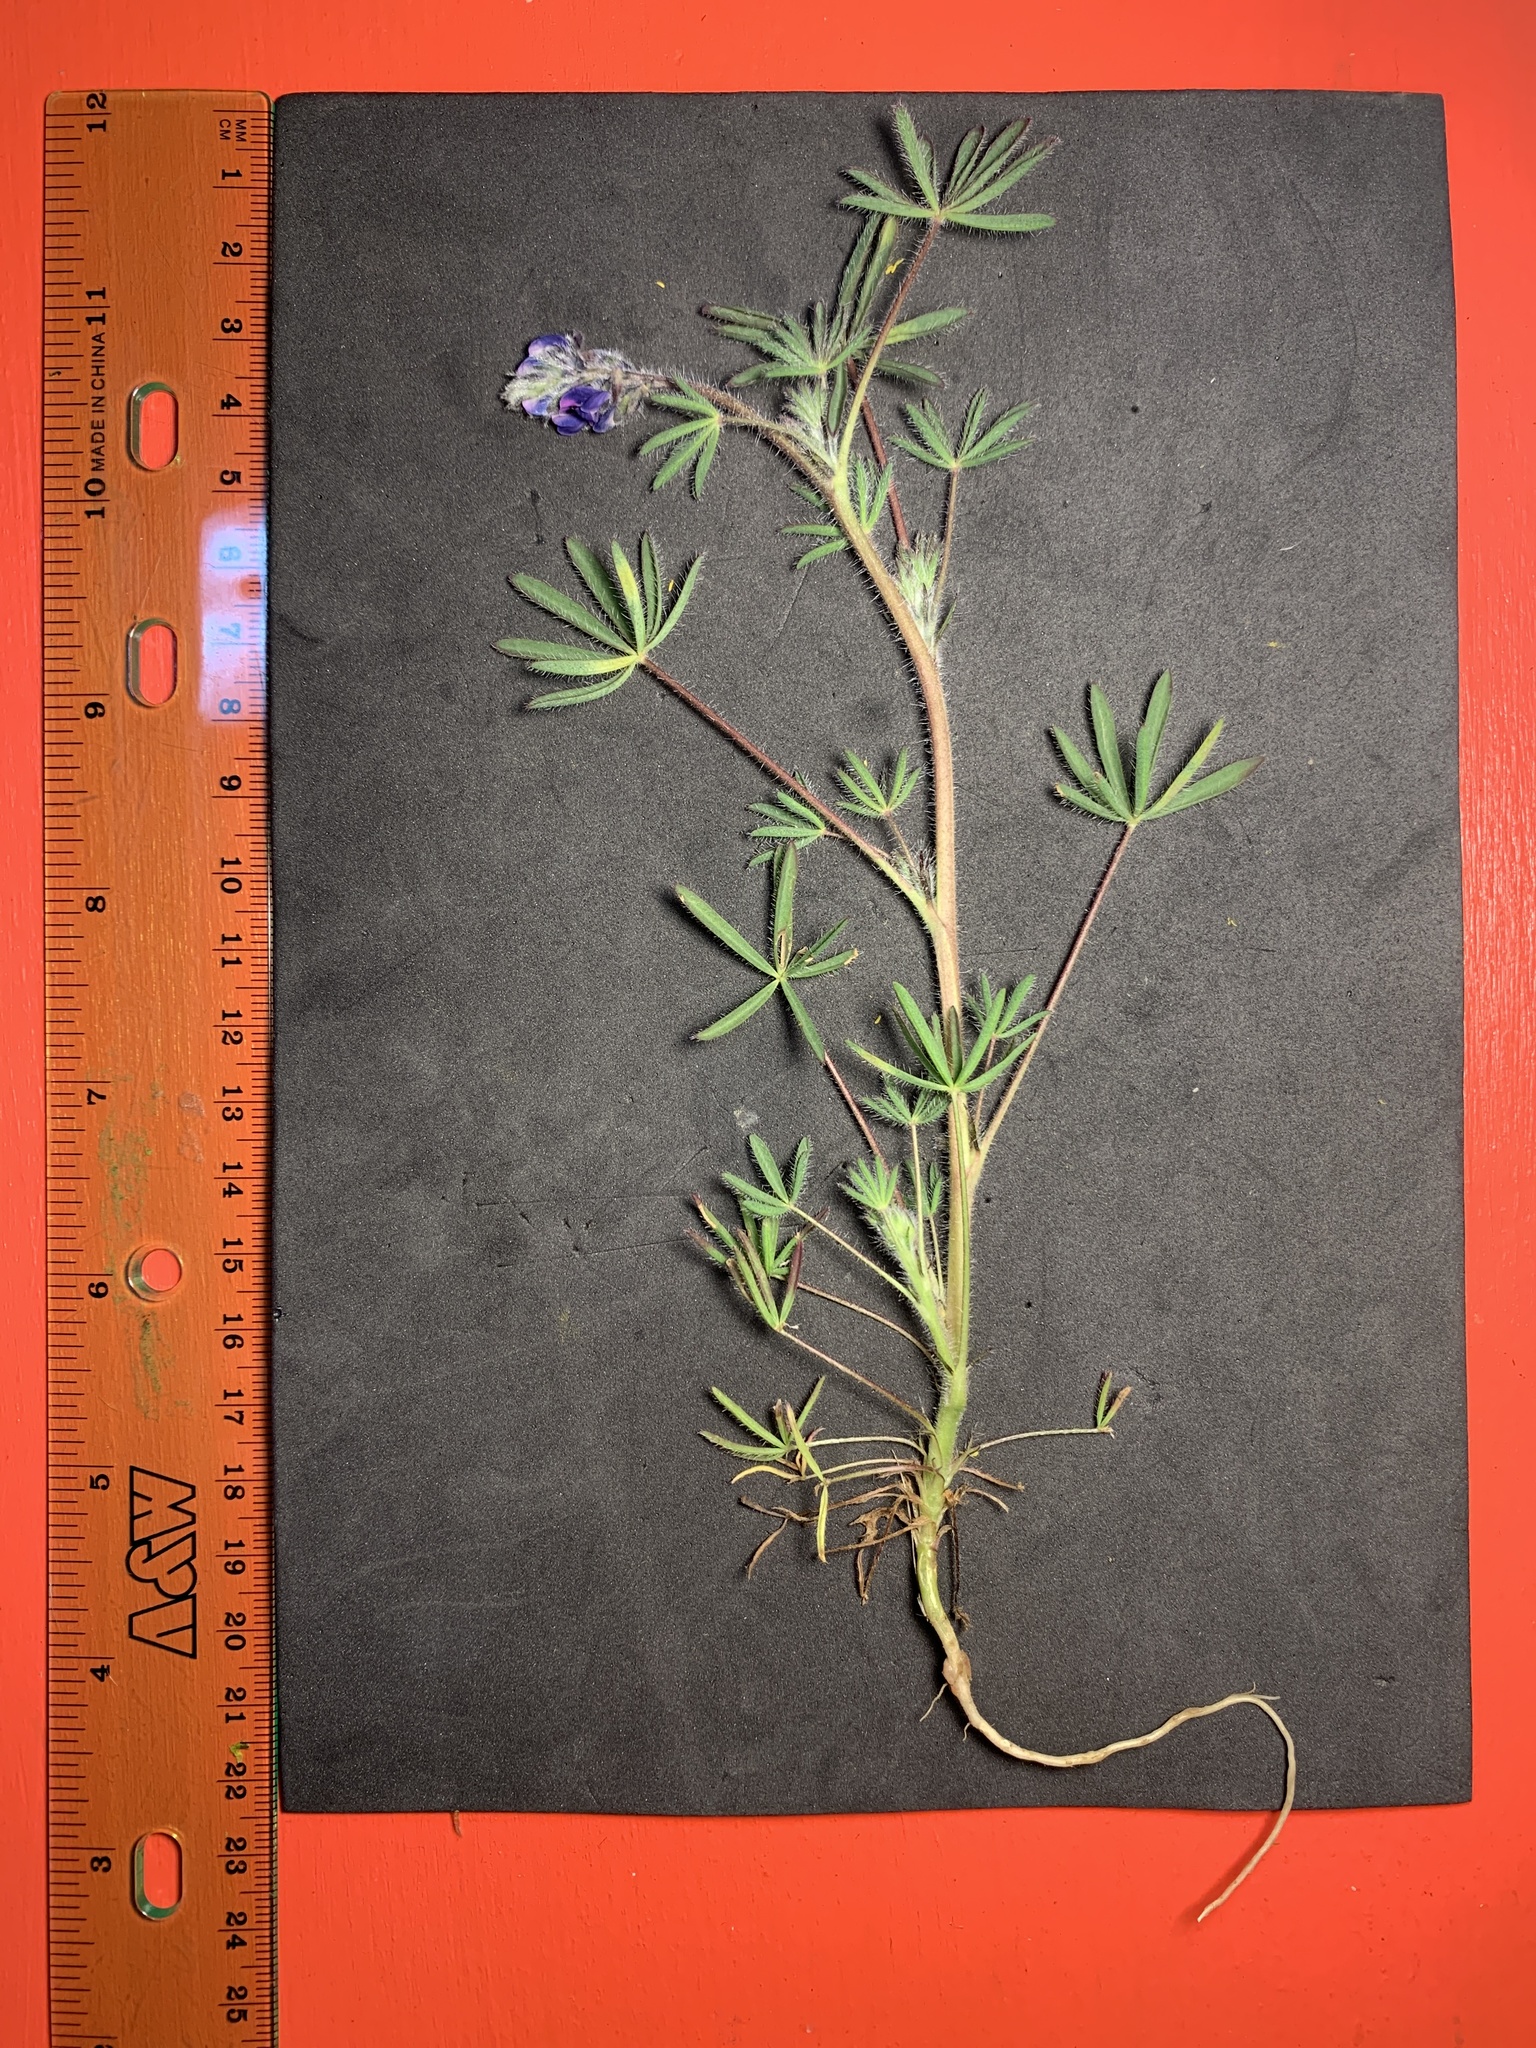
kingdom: Plantae
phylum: Tracheophyta
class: Magnoliopsida
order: Fabales
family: Fabaceae
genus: Lupinus
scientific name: Lupinus bicolor
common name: Miniature lupine
